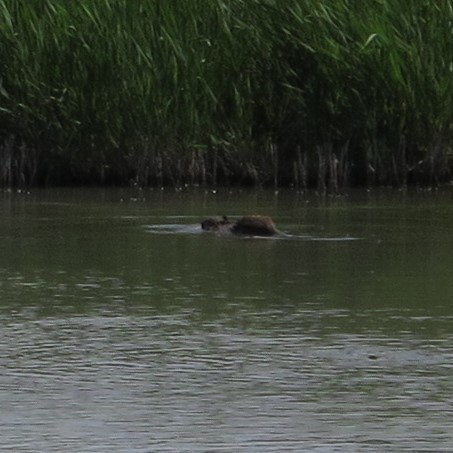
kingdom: Animalia
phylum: Chordata
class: Mammalia
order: Rodentia
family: Myocastoridae
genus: Myocastor
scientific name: Myocastor coypus
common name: Coypu
